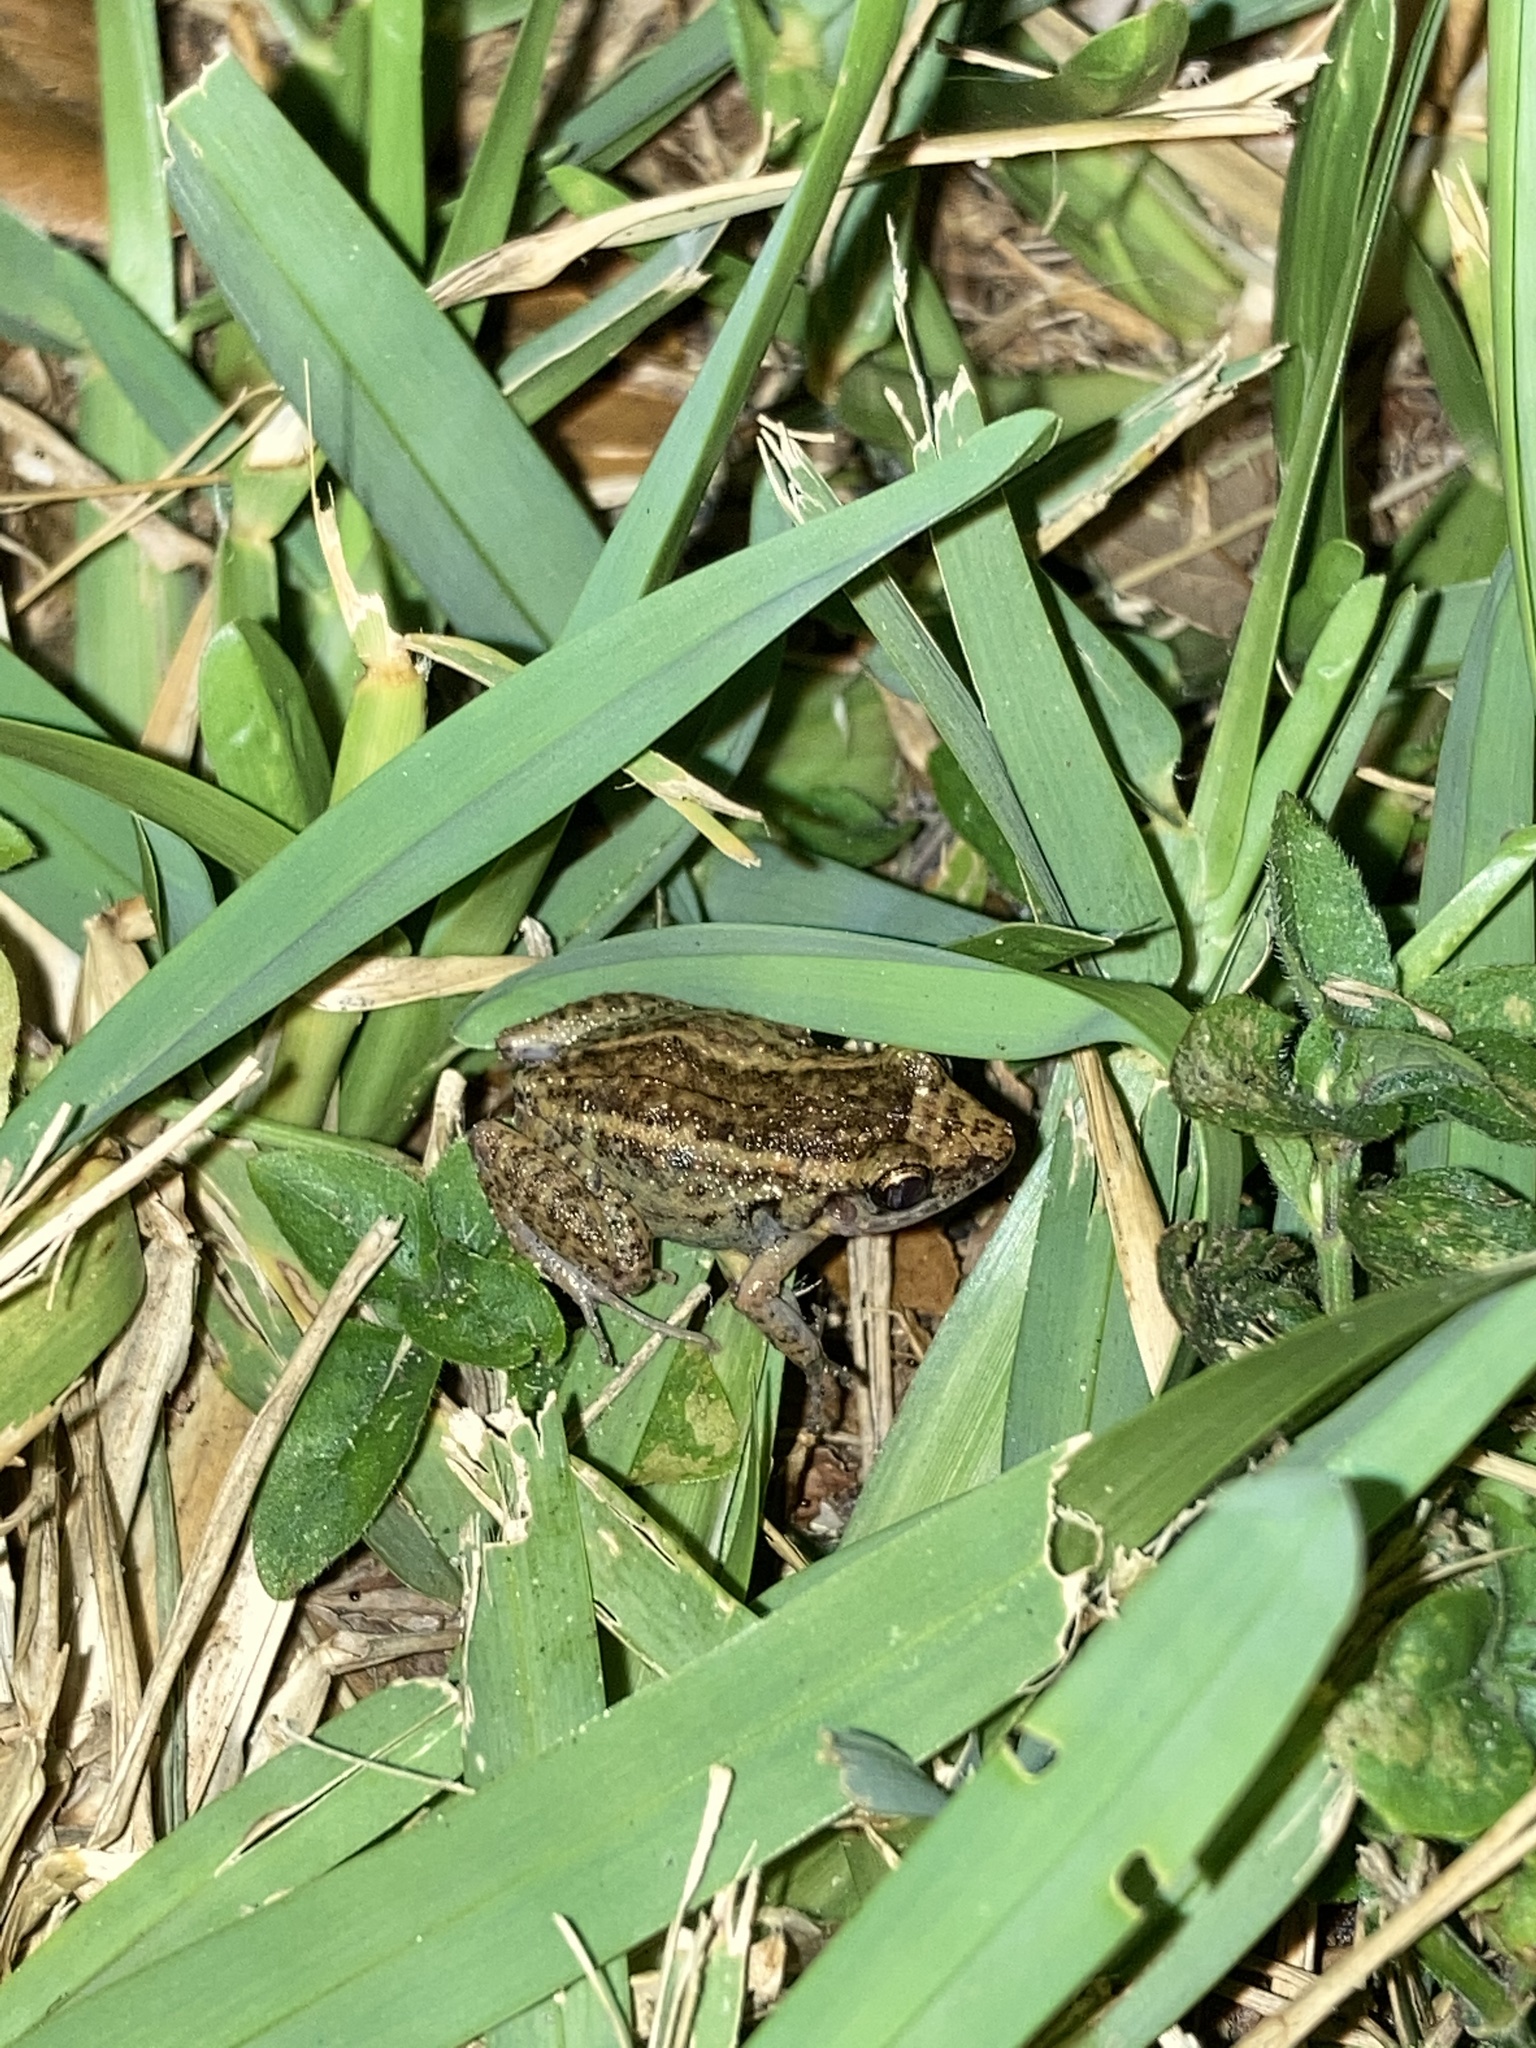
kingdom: Animalia
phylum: Chordata
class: Amphibia
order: Anura
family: Eleutherodactylidae
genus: Eleutherodactylus
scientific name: Eleutherodactylus planirostris
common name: Greenhouse frog
